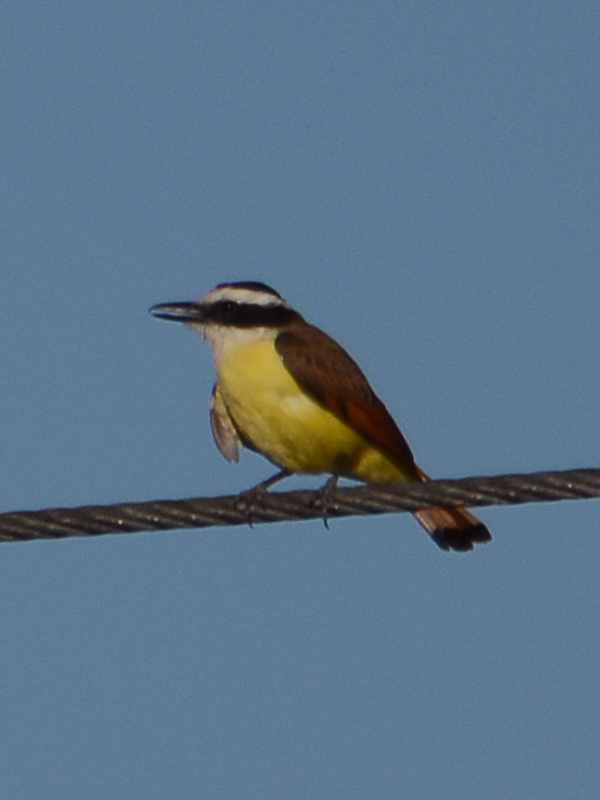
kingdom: Animalia
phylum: Chordata
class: Aves
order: Passeriformes
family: Tyrannidae
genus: Pitangus
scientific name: Pitangus sulphuratus
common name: Great kiskadee
